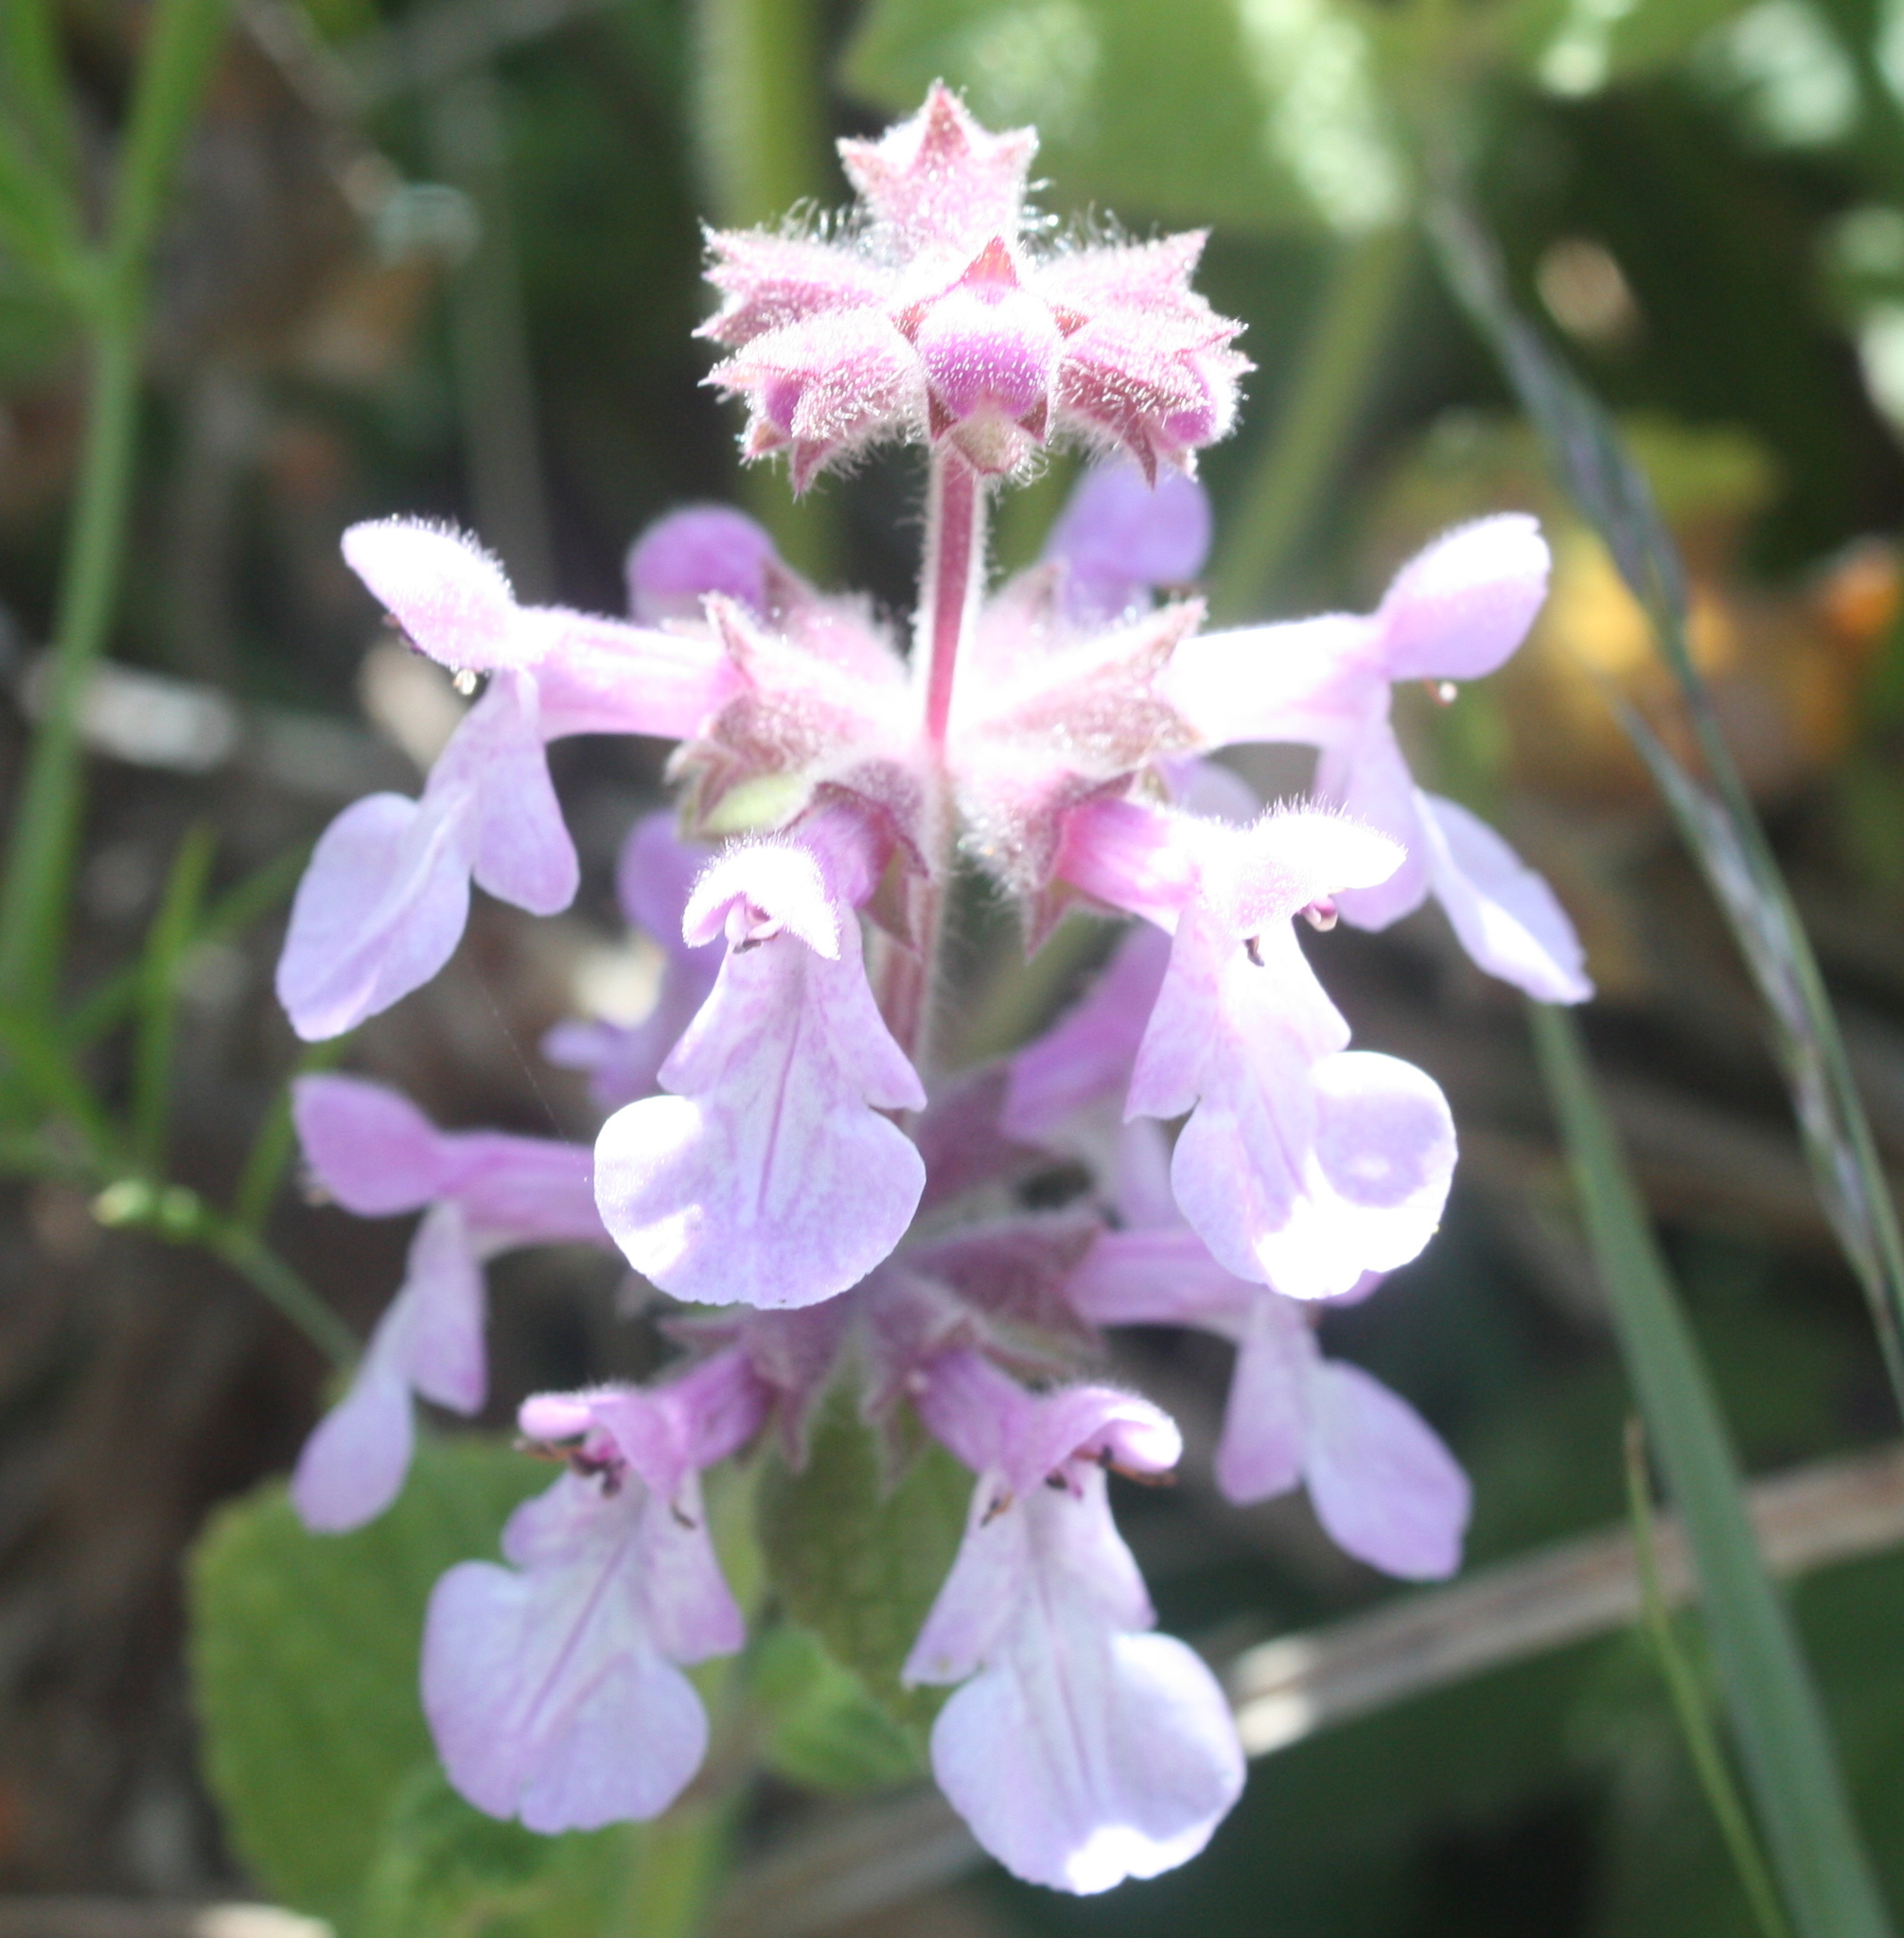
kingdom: Plantae
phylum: Tracheophyta
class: Magnoliopsida
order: Lamiales
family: Lamiaceae
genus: Stachys
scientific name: Stachys bullata
